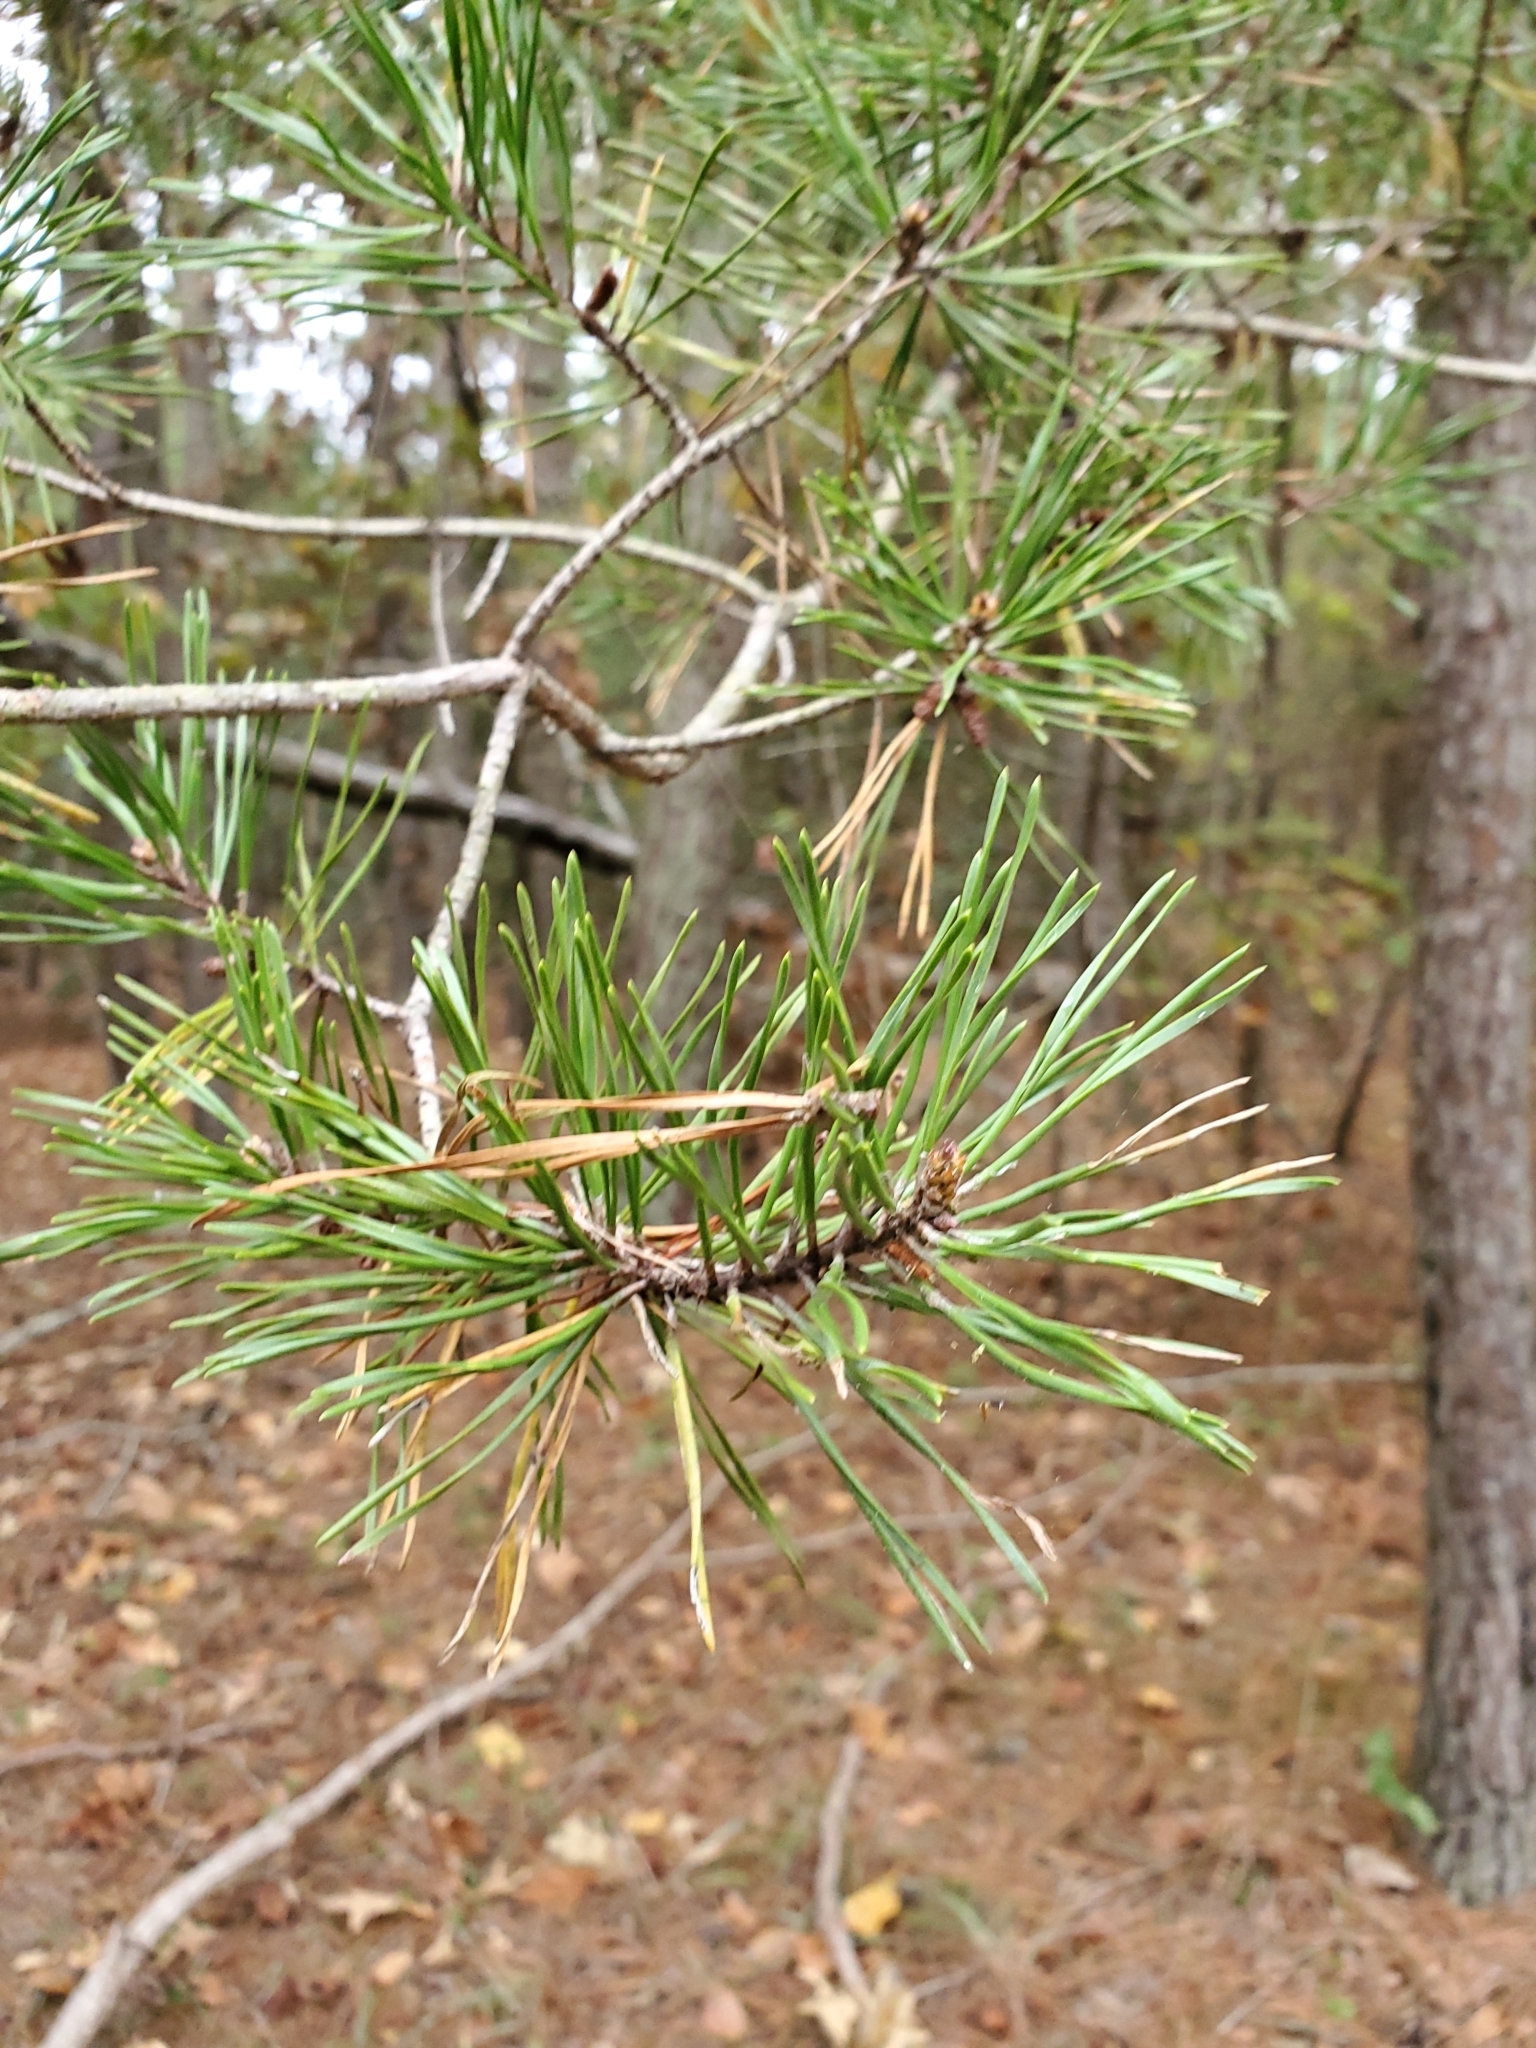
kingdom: Plantae
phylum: Tracheophyta
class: Pinopsida
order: Pinales
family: Pinaceae
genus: Pinus
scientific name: Pinus virginiana
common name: Scrub pine
